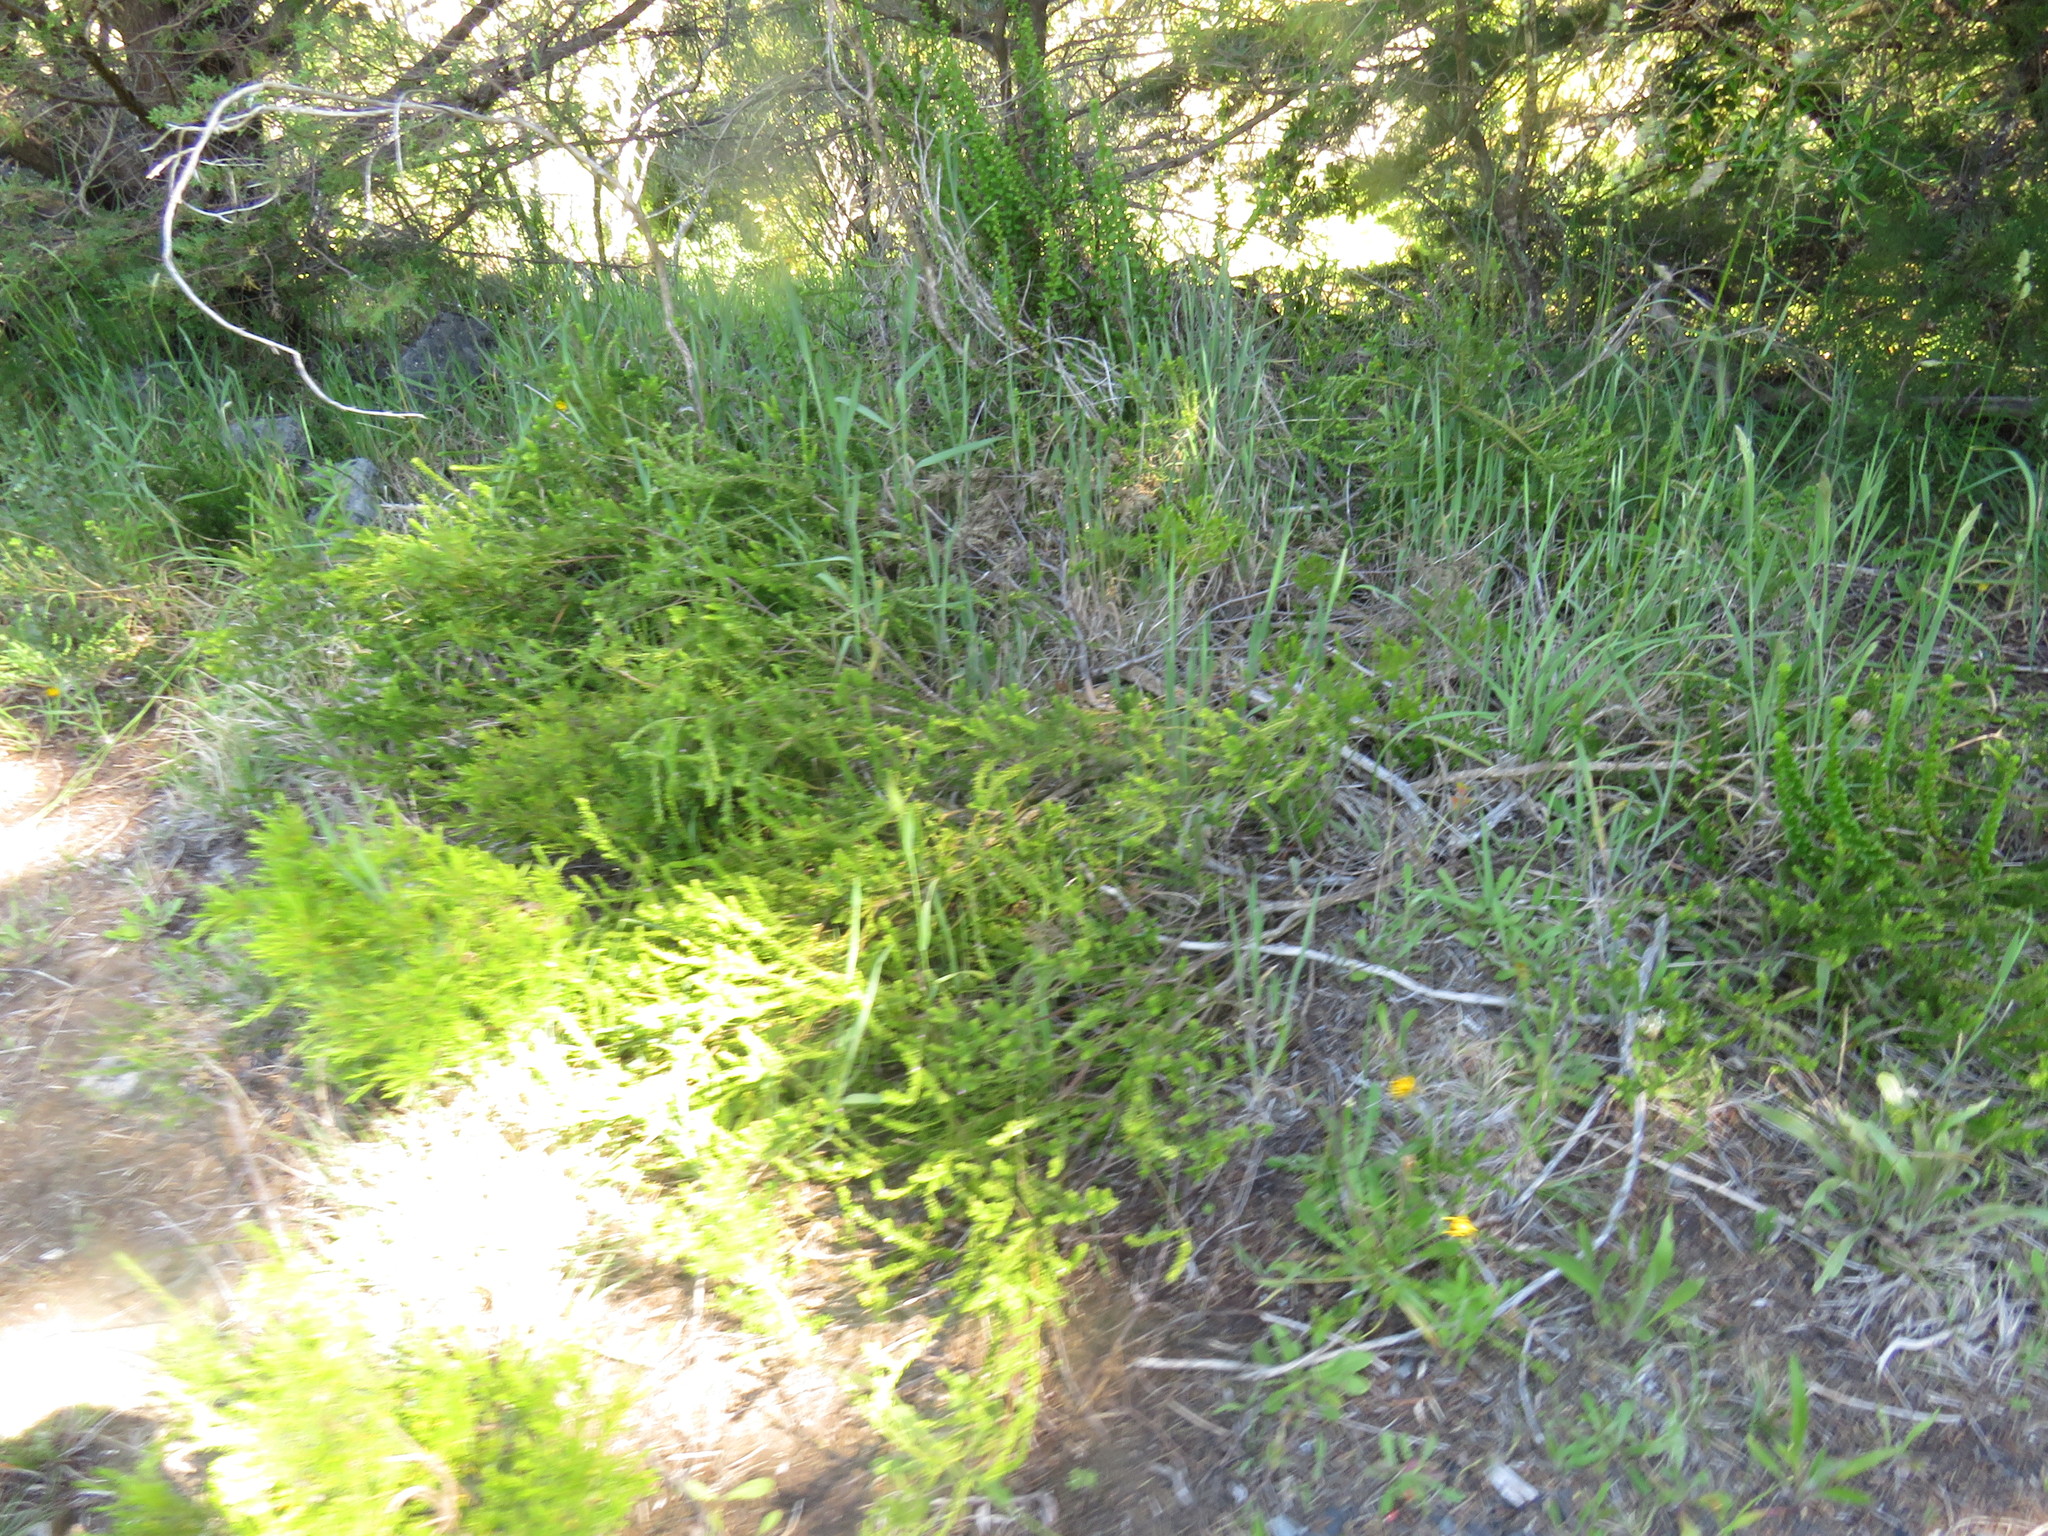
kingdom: Plantae
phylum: Tracheophyta
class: Magnoliopsida
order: Fabales
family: Polygalaceae
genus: Muraltia
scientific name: Muraltia spinosa
